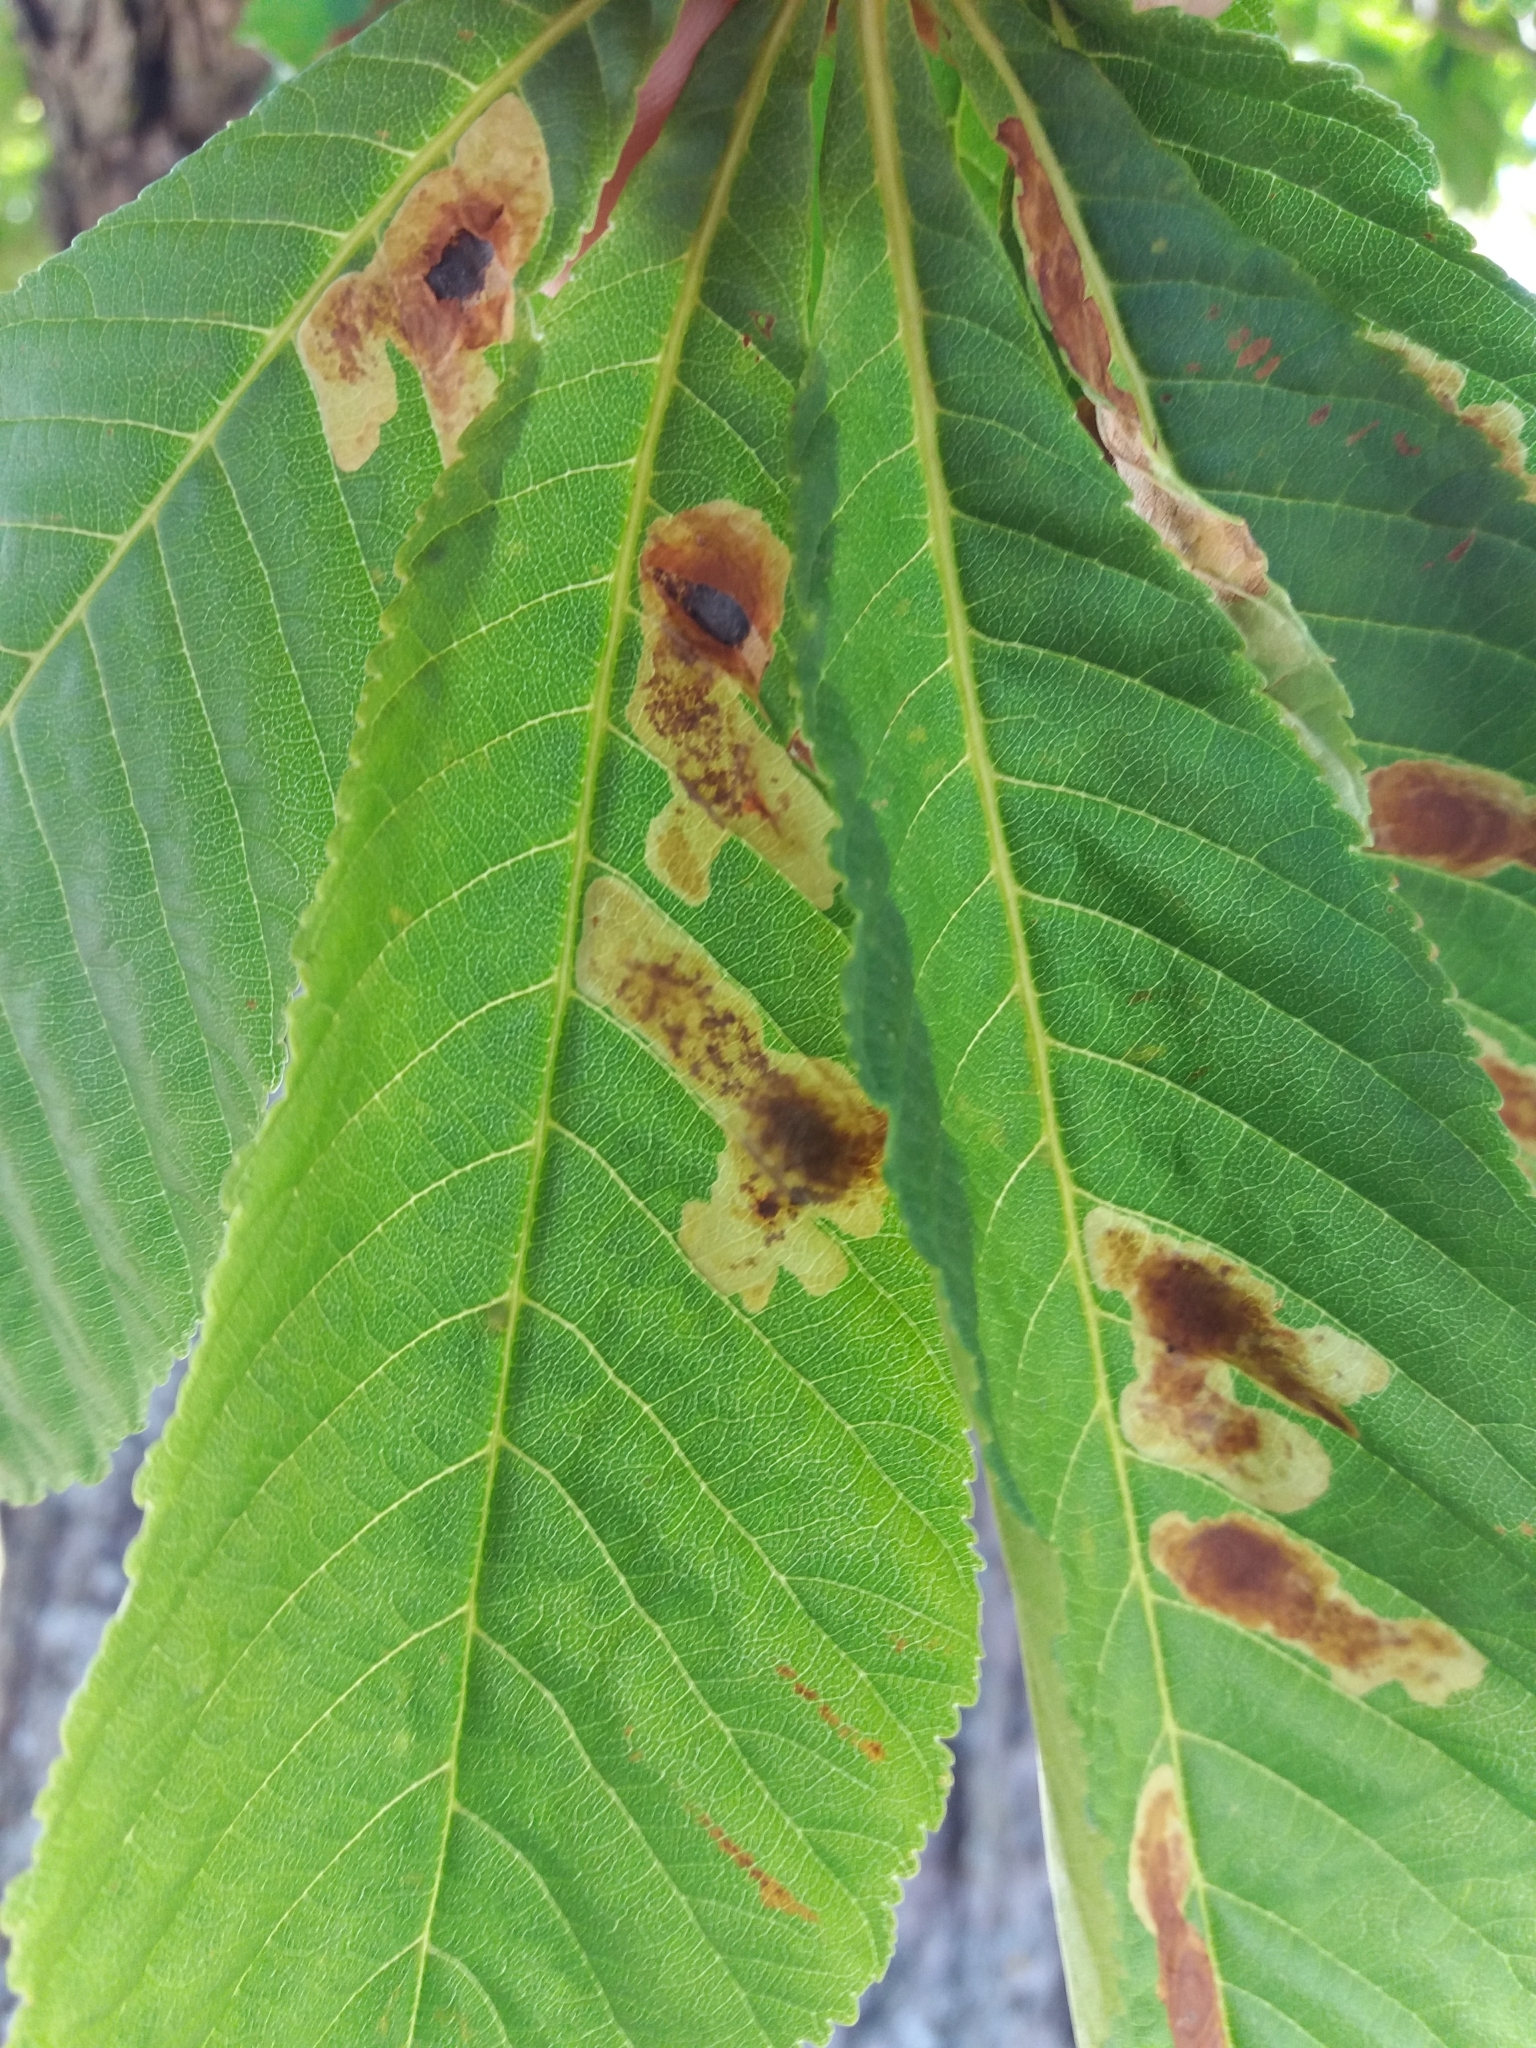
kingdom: Animalia
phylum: Arthropoda
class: Insecta
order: Lepidoptera
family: Gracillariidae
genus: Cameraria
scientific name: Cameraria ohridella
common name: Horse-chestnut leaf-miner
